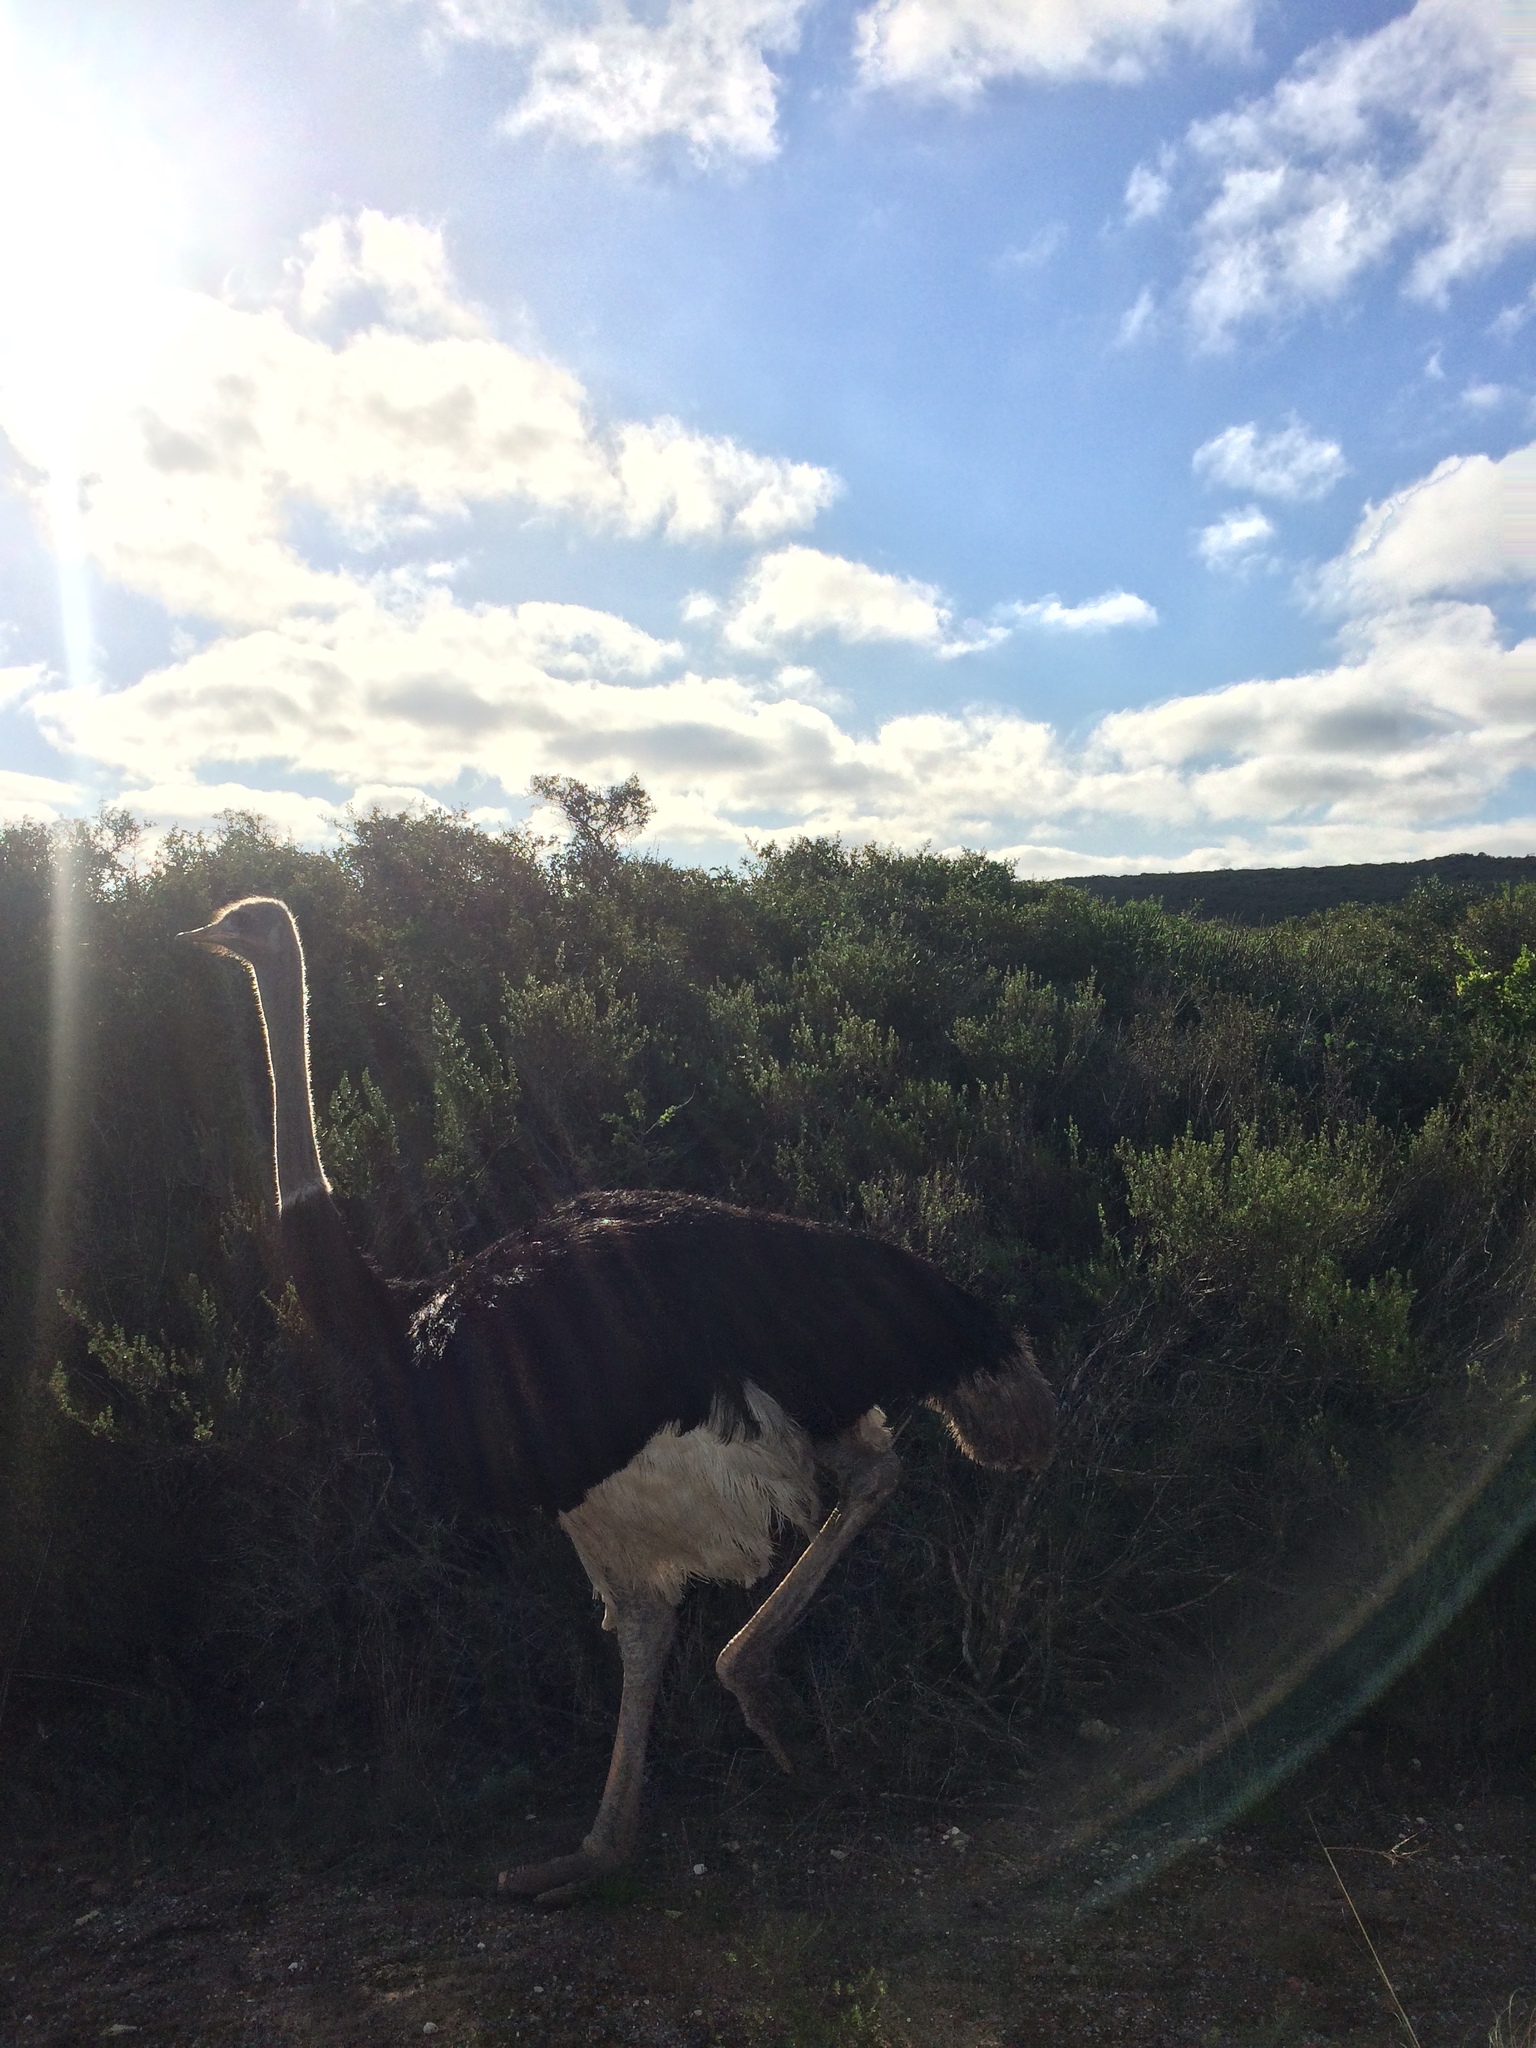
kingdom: Animalia
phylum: Chordata
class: Aves
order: Struthioniformes
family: Struthionidae
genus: Struthio
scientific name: Struthio camelus
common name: Common ostrich
